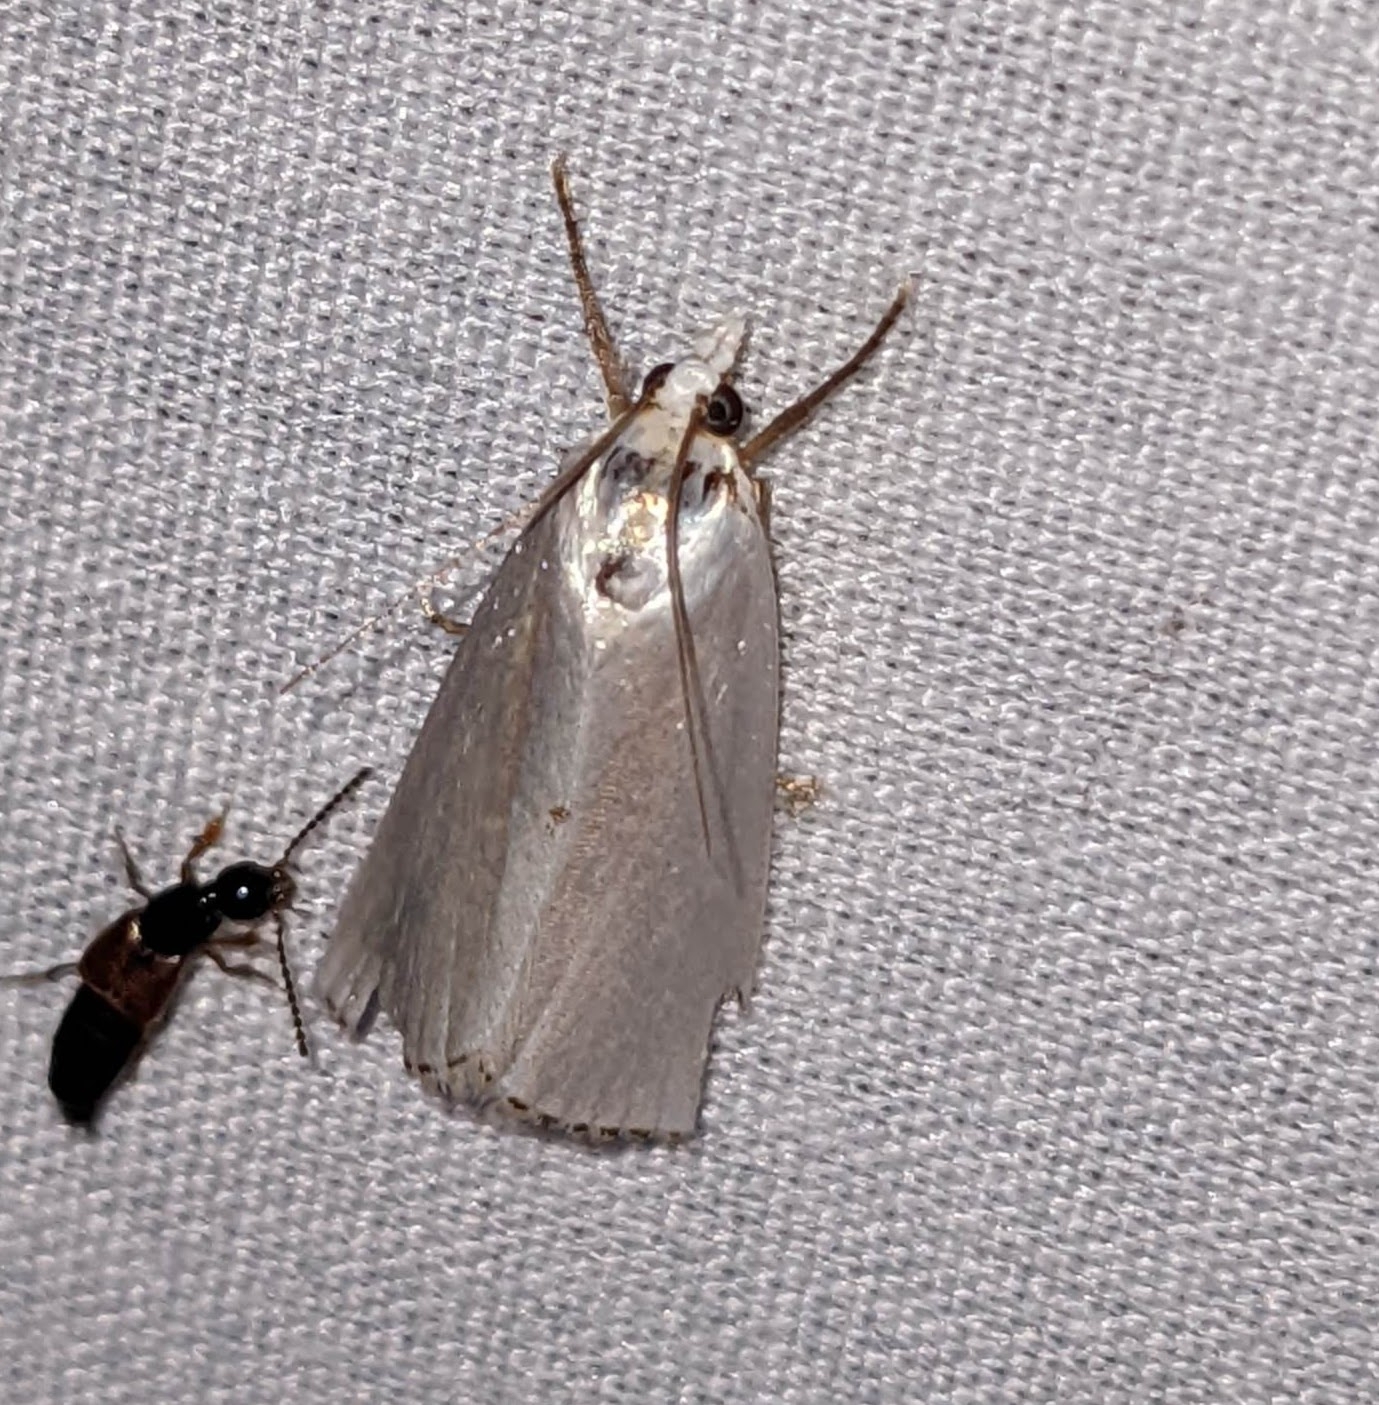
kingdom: Animalia
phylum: Arthropoda
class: Insecta
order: Lepidoptera
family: Crambidae
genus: Argyria
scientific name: Argyria nivalis
